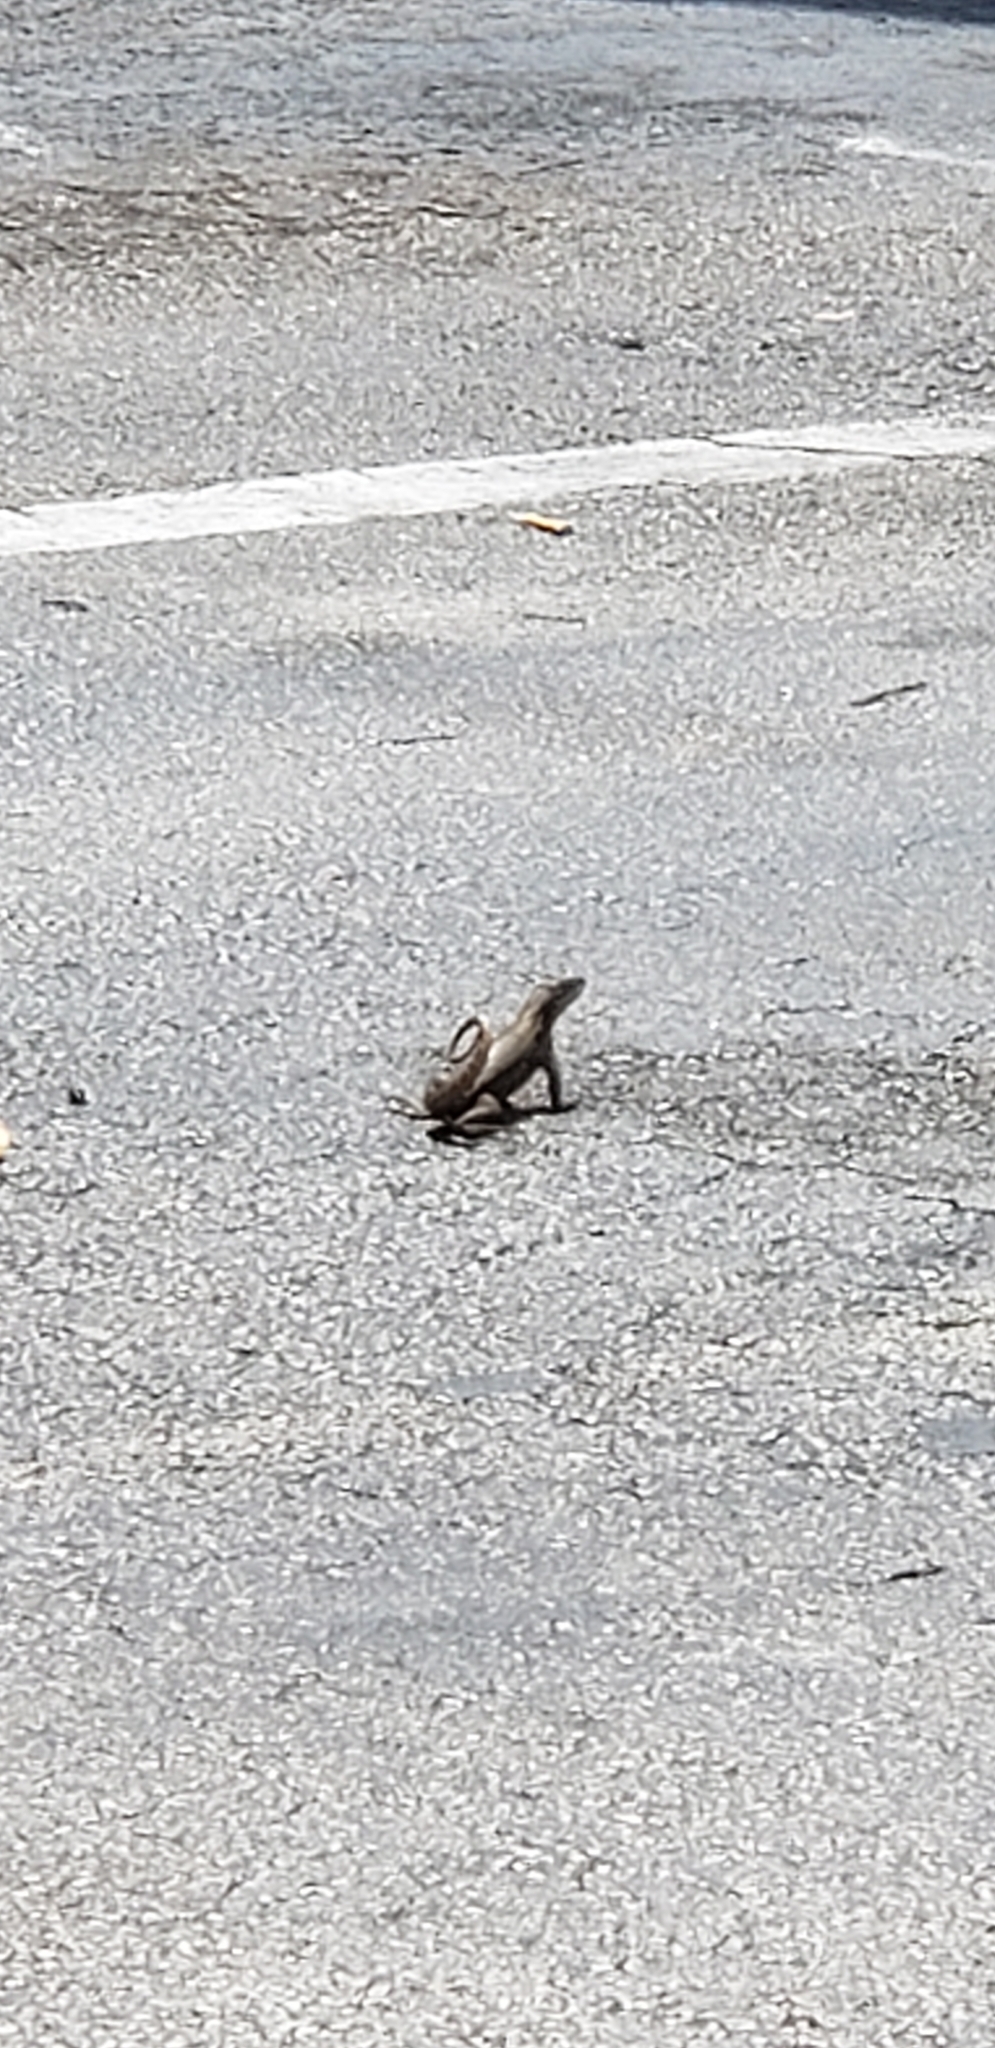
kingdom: Animalia
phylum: Chordata
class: Squamata
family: Leiocephalidae
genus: Leiocephalus
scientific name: Leiocephalus carinatus
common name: Northern curly-tailed lizard
